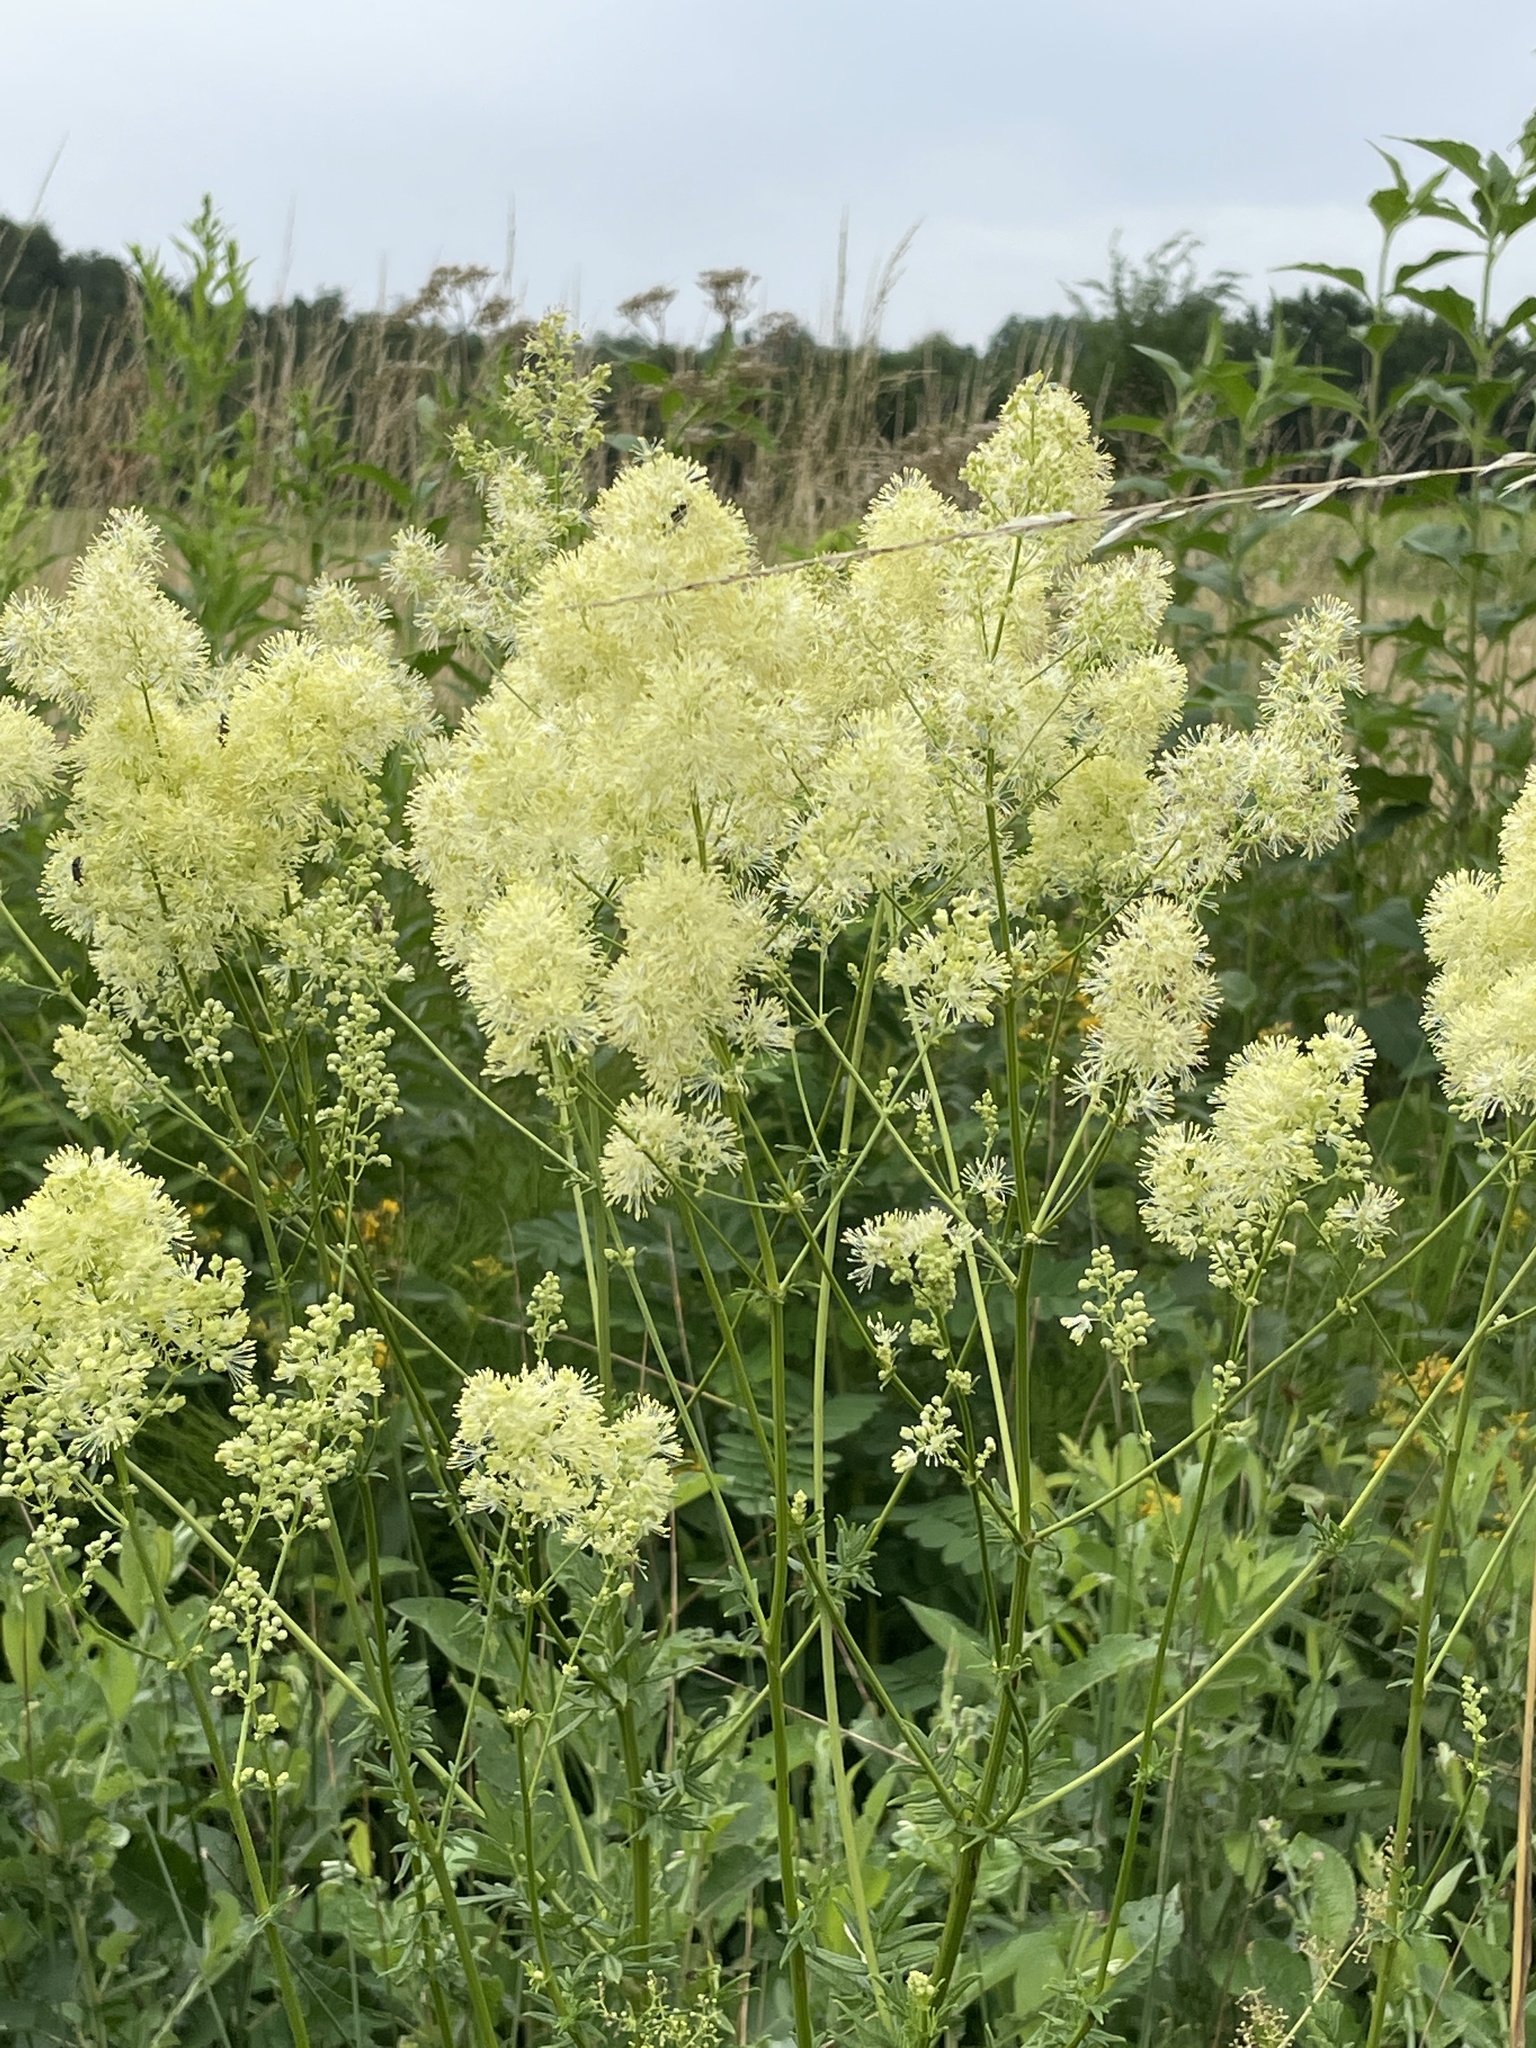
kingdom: Plantae
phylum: Tracheophyta
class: Magnoliopsida
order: Ranunculales
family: Ranunculaceae
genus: Thalictrum
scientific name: Thalictrum flavum
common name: Common meadow-rue
